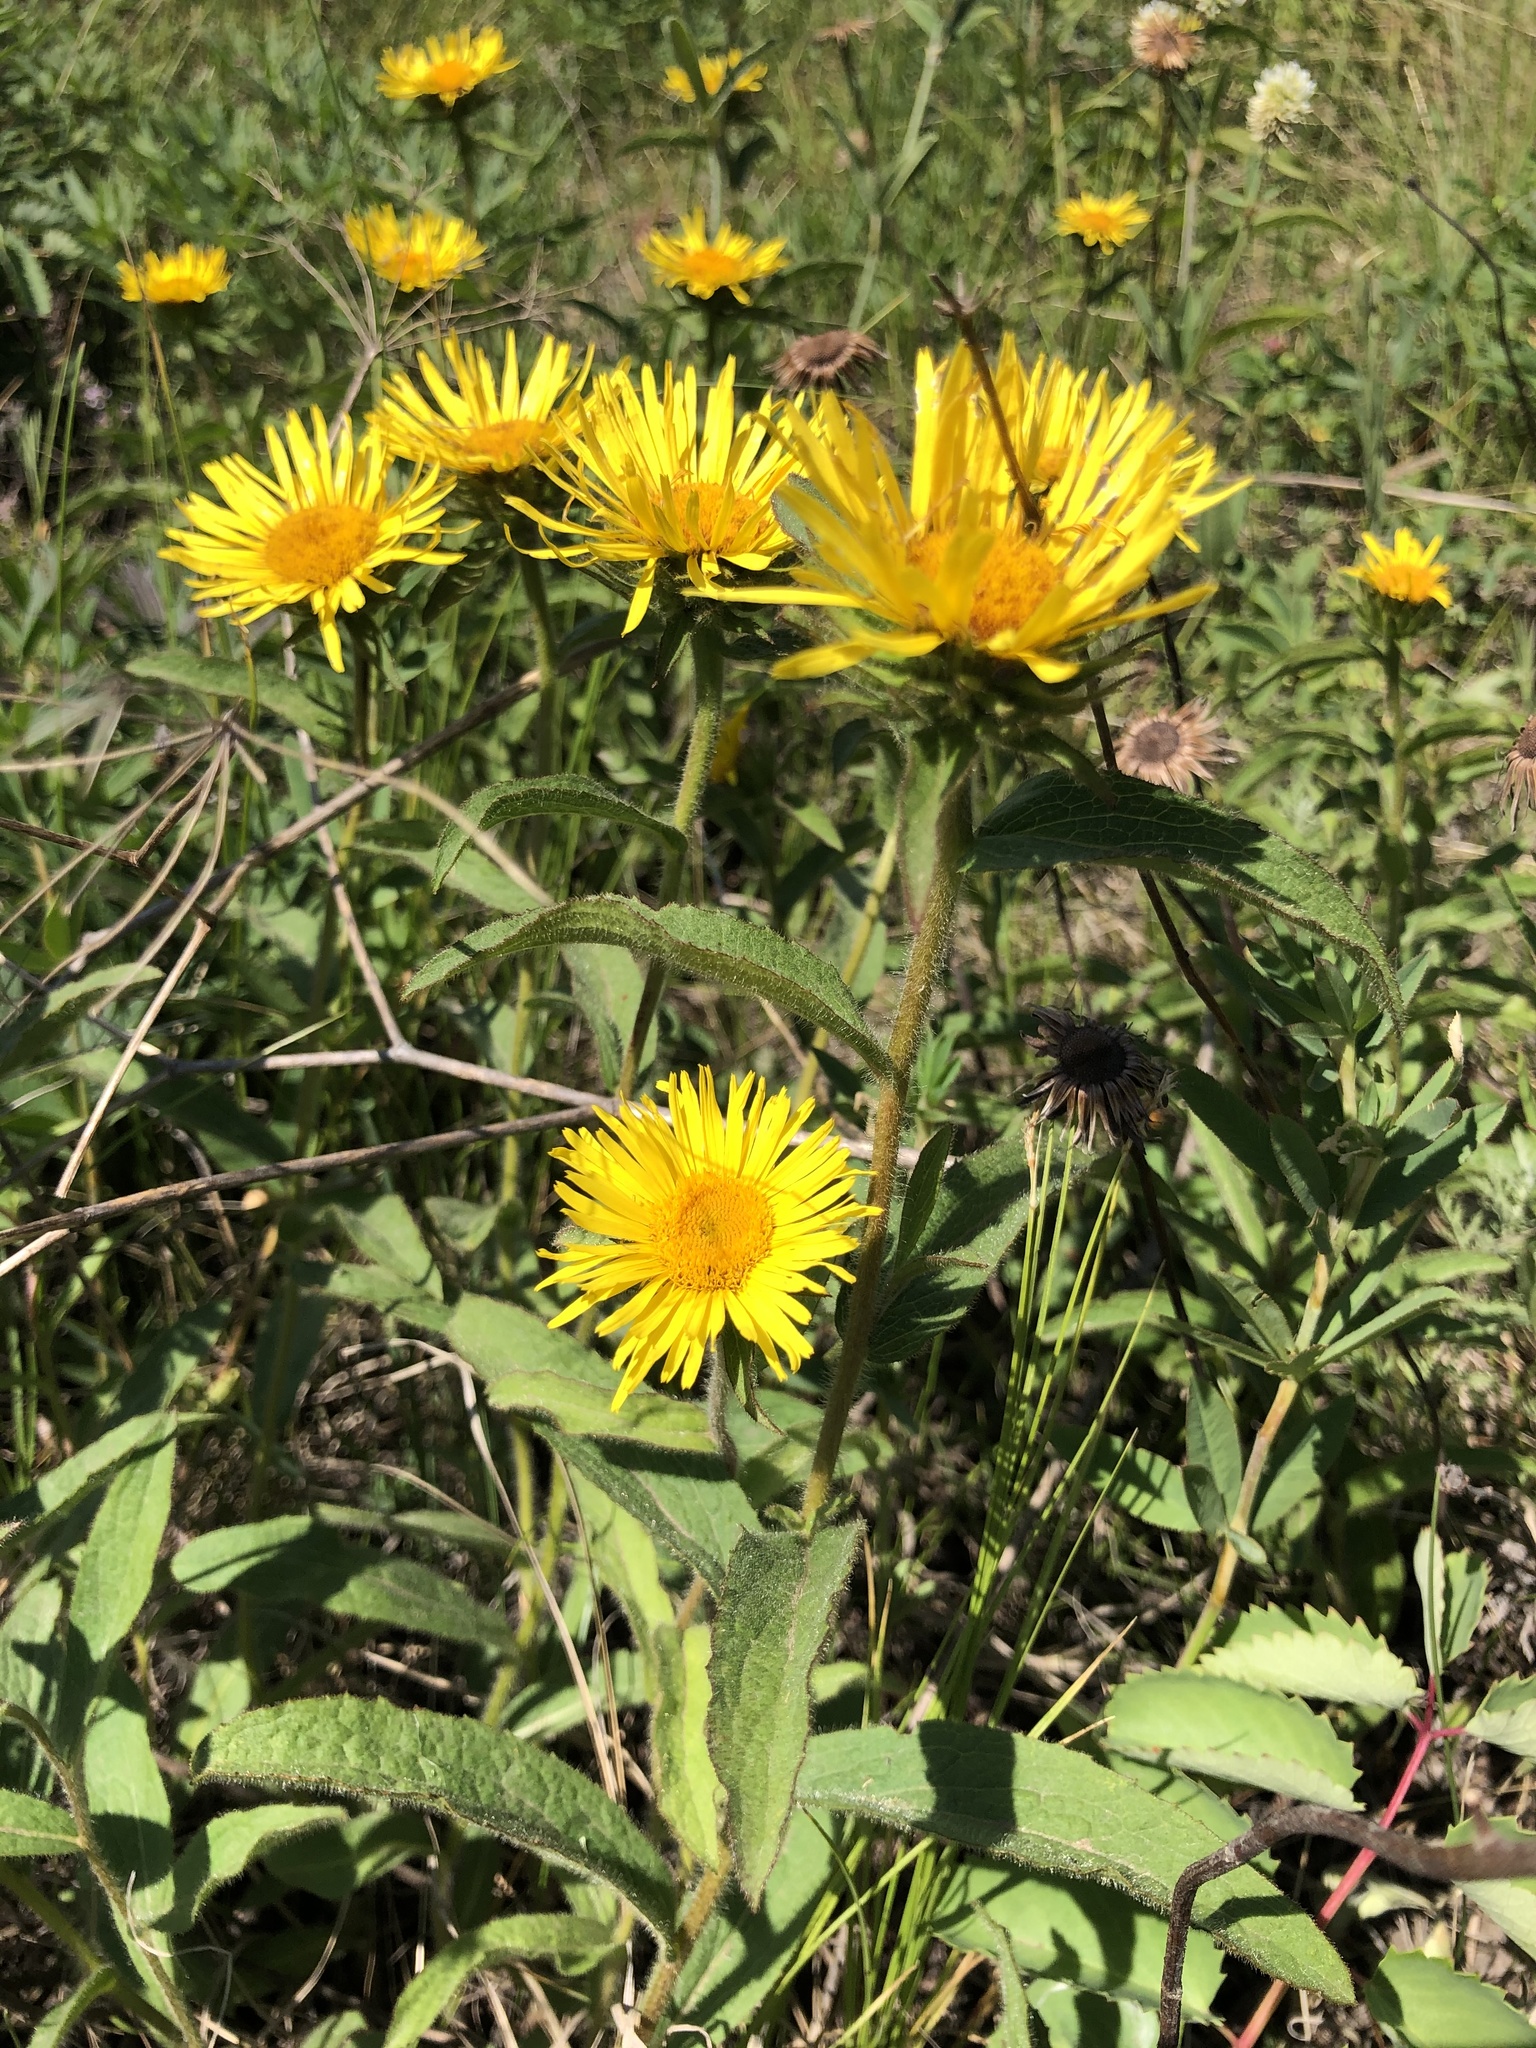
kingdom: Plantae
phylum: Tracheophyta
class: Magnoliopsida
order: Asterales
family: Asteraceae
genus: Pentanema
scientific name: Pentanema hirtum
